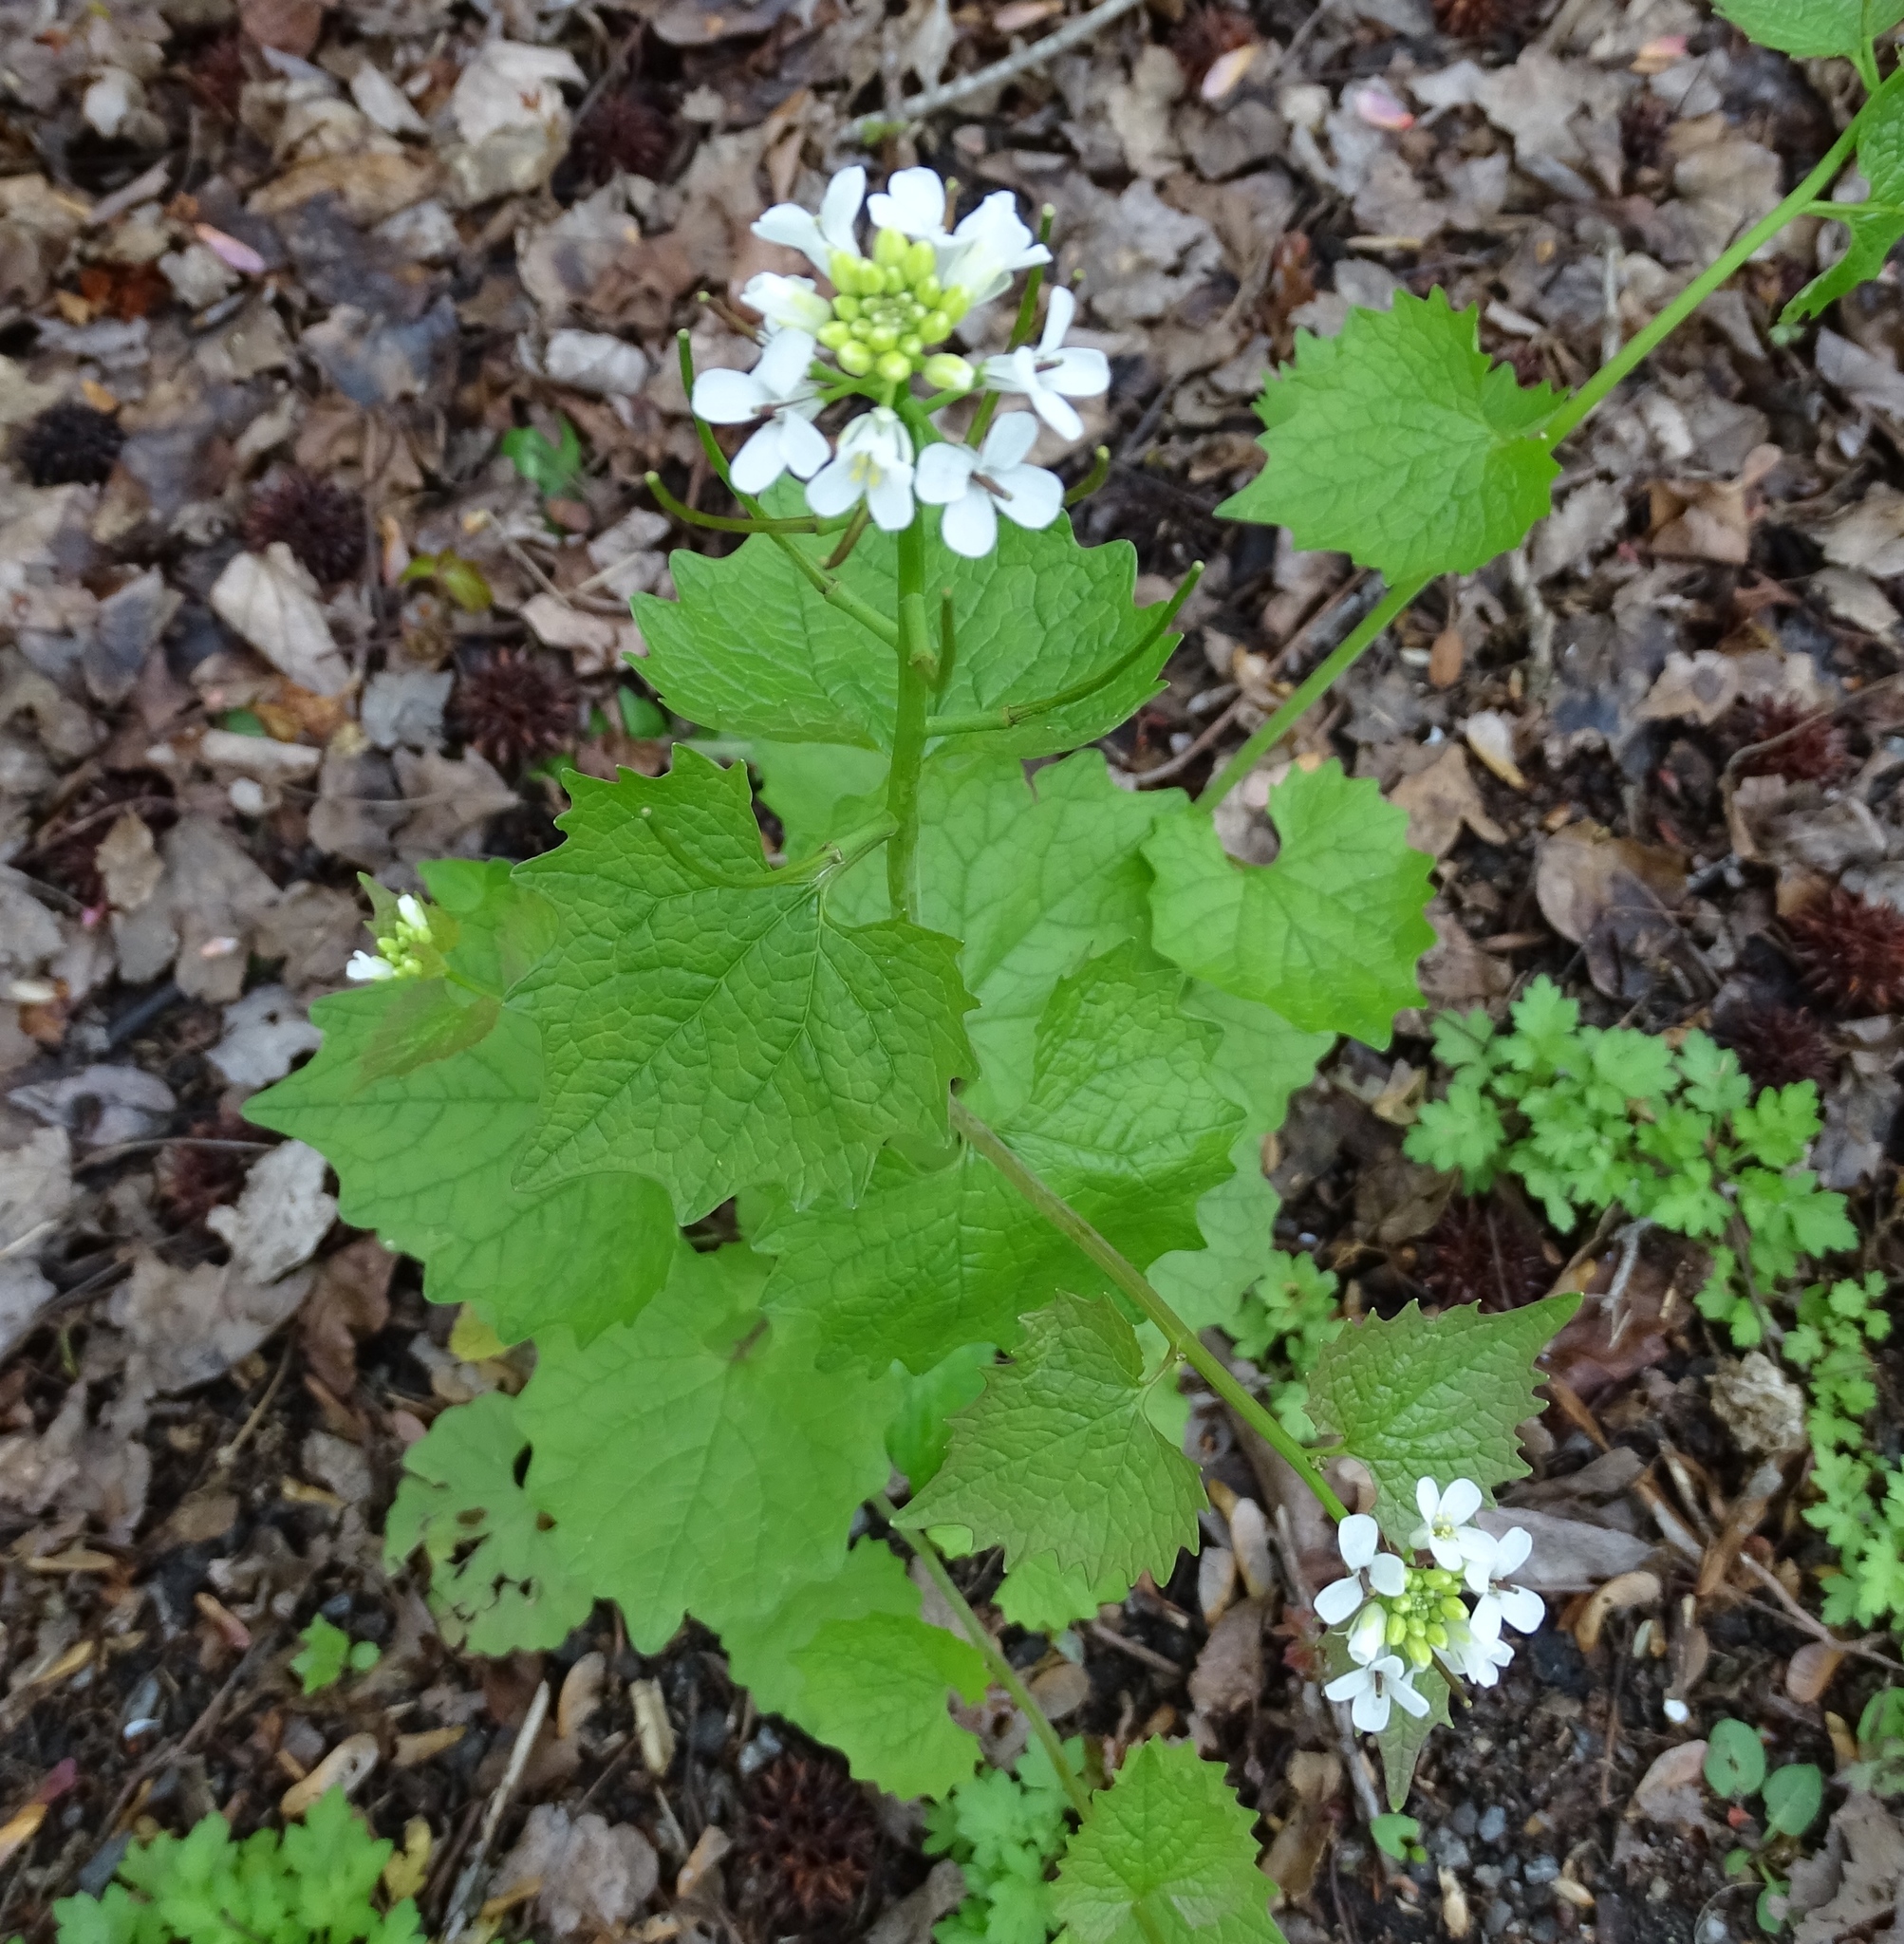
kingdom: Plantae
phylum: Tracheophyta
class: Magnoliopsida
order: Brassicales
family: Brassicaceae
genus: Alliaria
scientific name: Alliaria petiolata
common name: Garlic mustard
